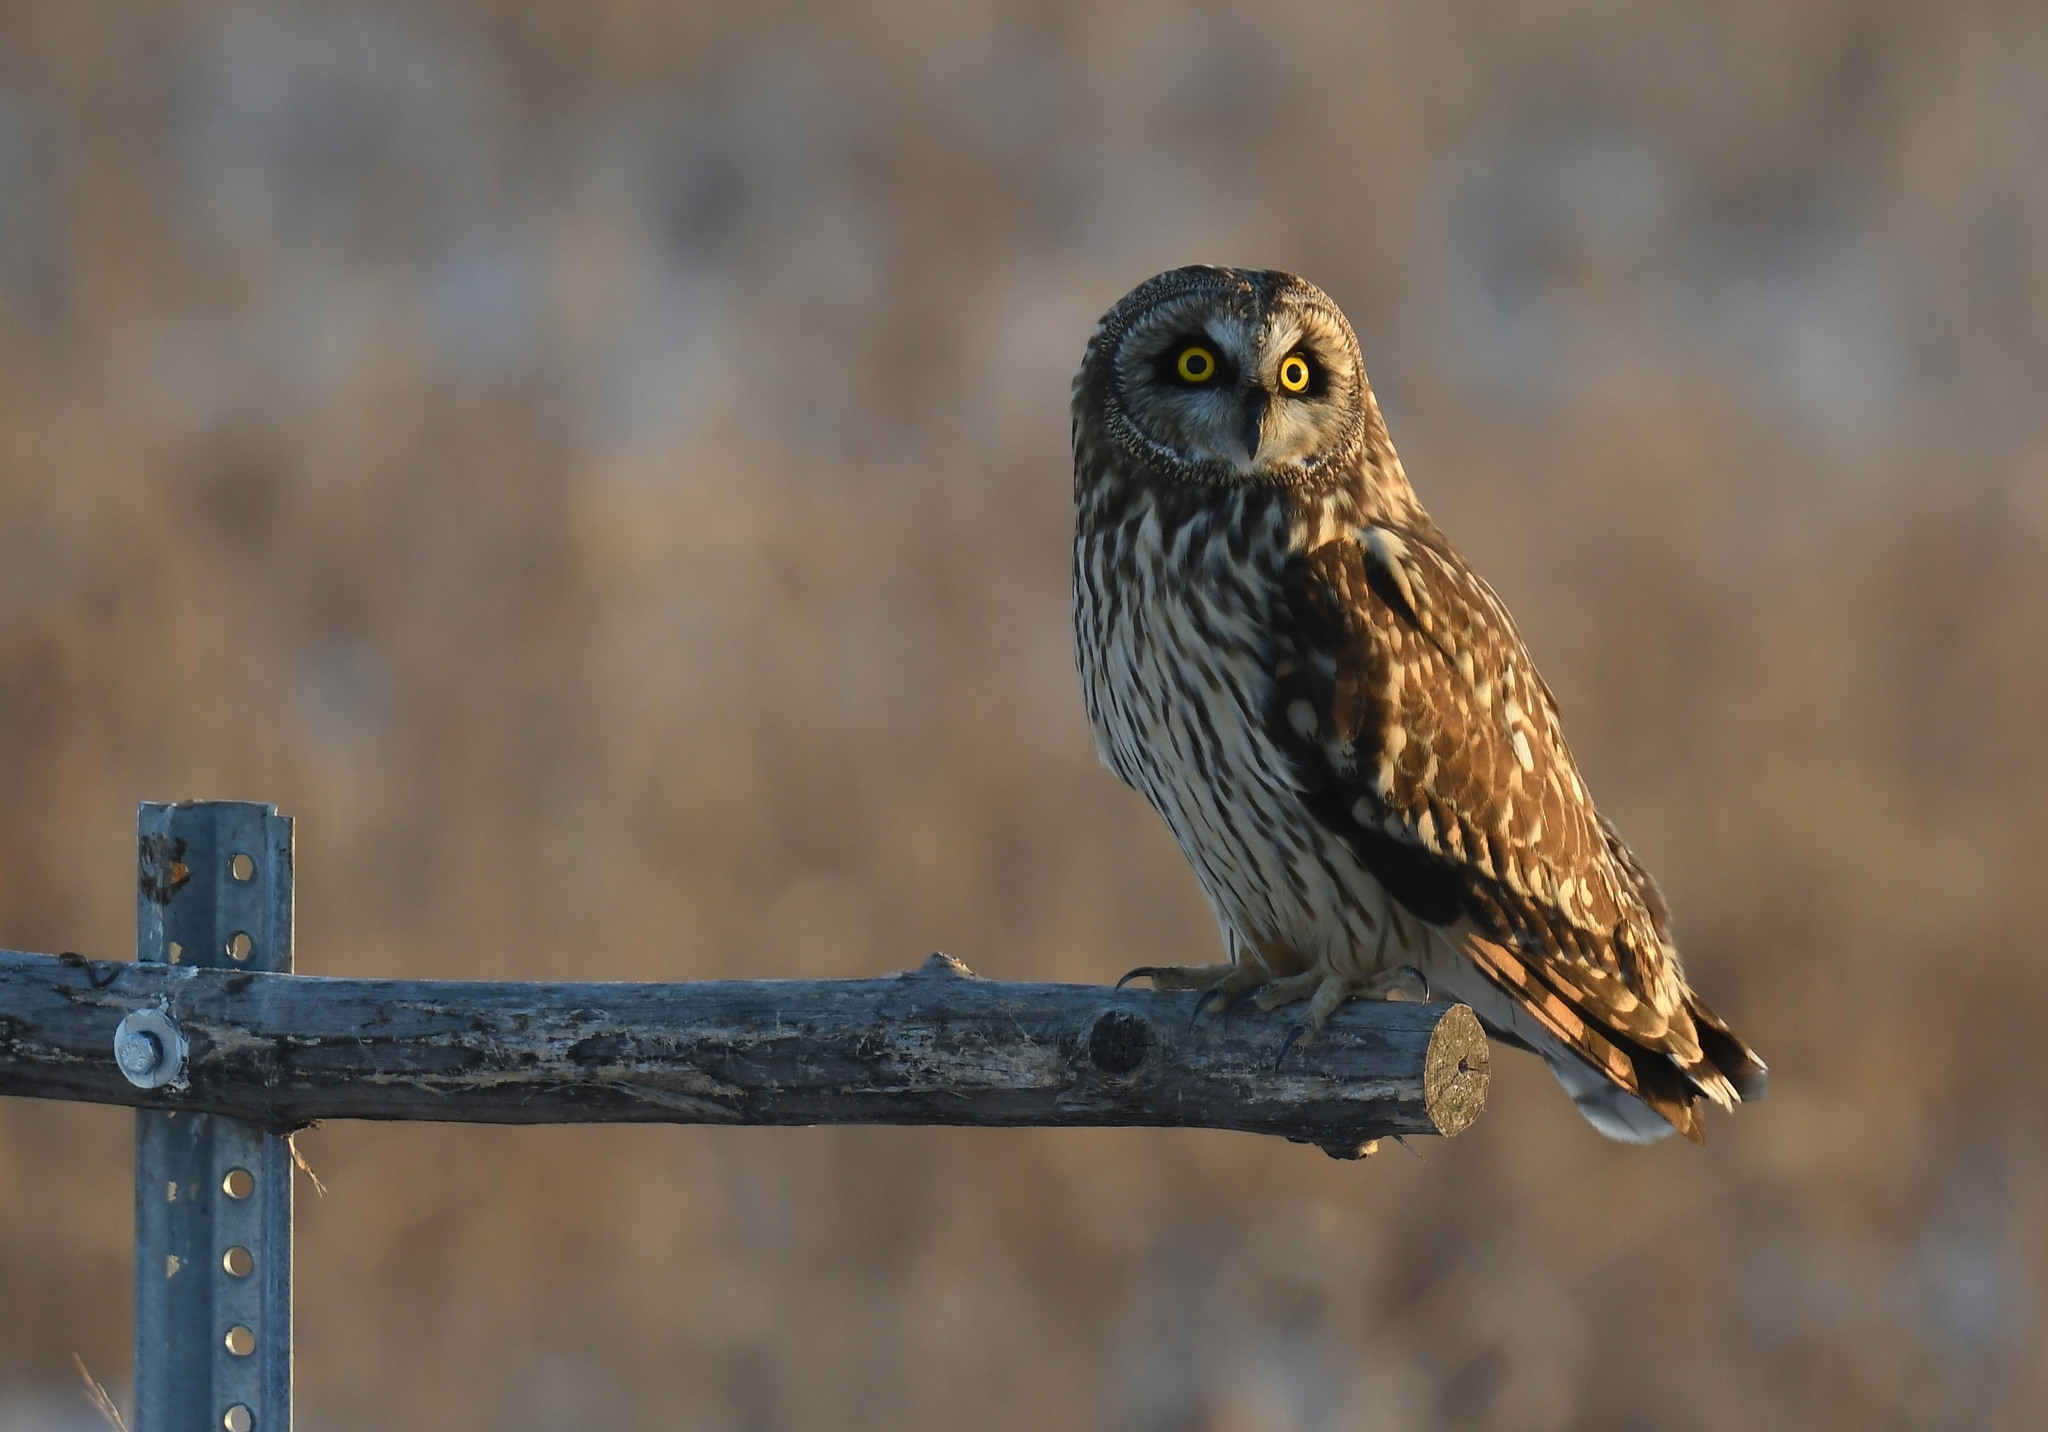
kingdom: Animalia
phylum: Chordata
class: Aves
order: Strigiformes
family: Strigidae
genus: Asio
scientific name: Asio flammeus
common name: Short-eared owl
